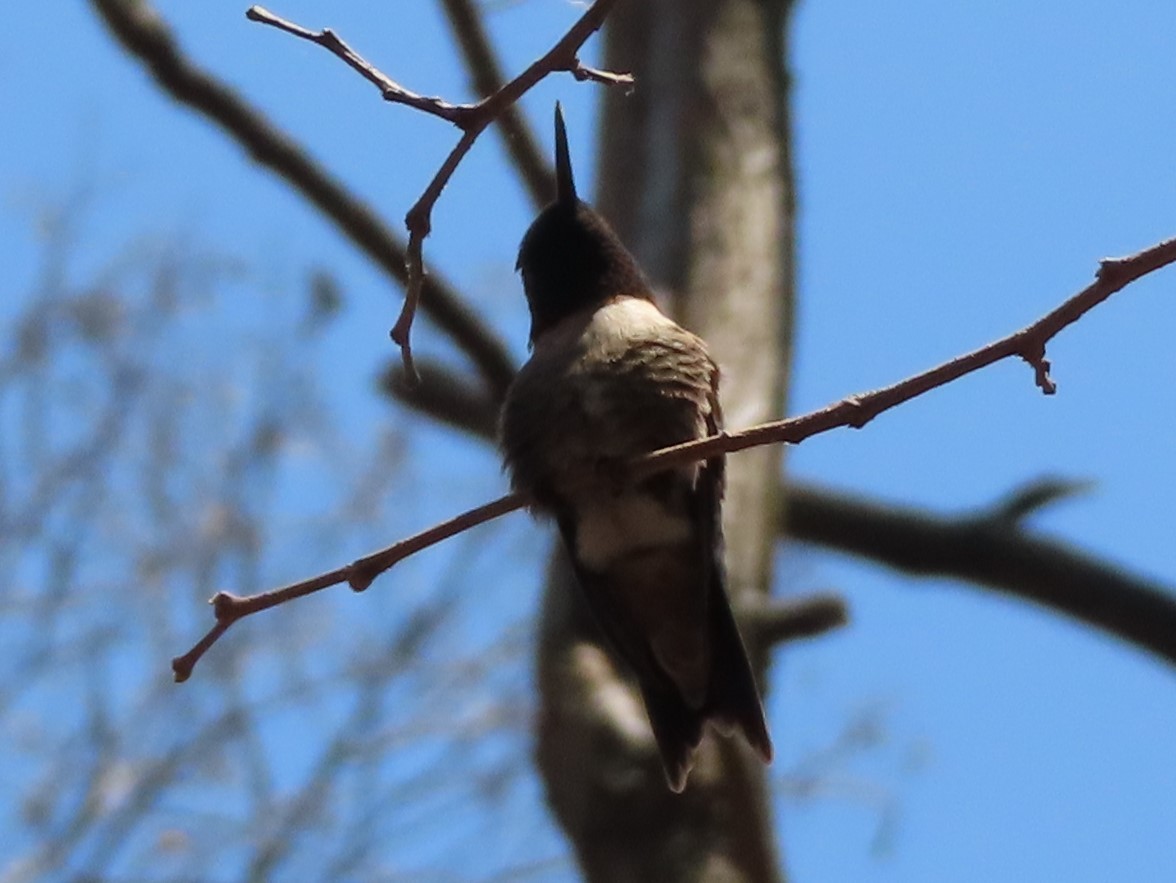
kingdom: Animalia
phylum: Chordata
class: Aves
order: Apodiformes
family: Trochilidae
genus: Archilochus
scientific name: Archilochus colubris
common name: Ruby-throated hummingbird
